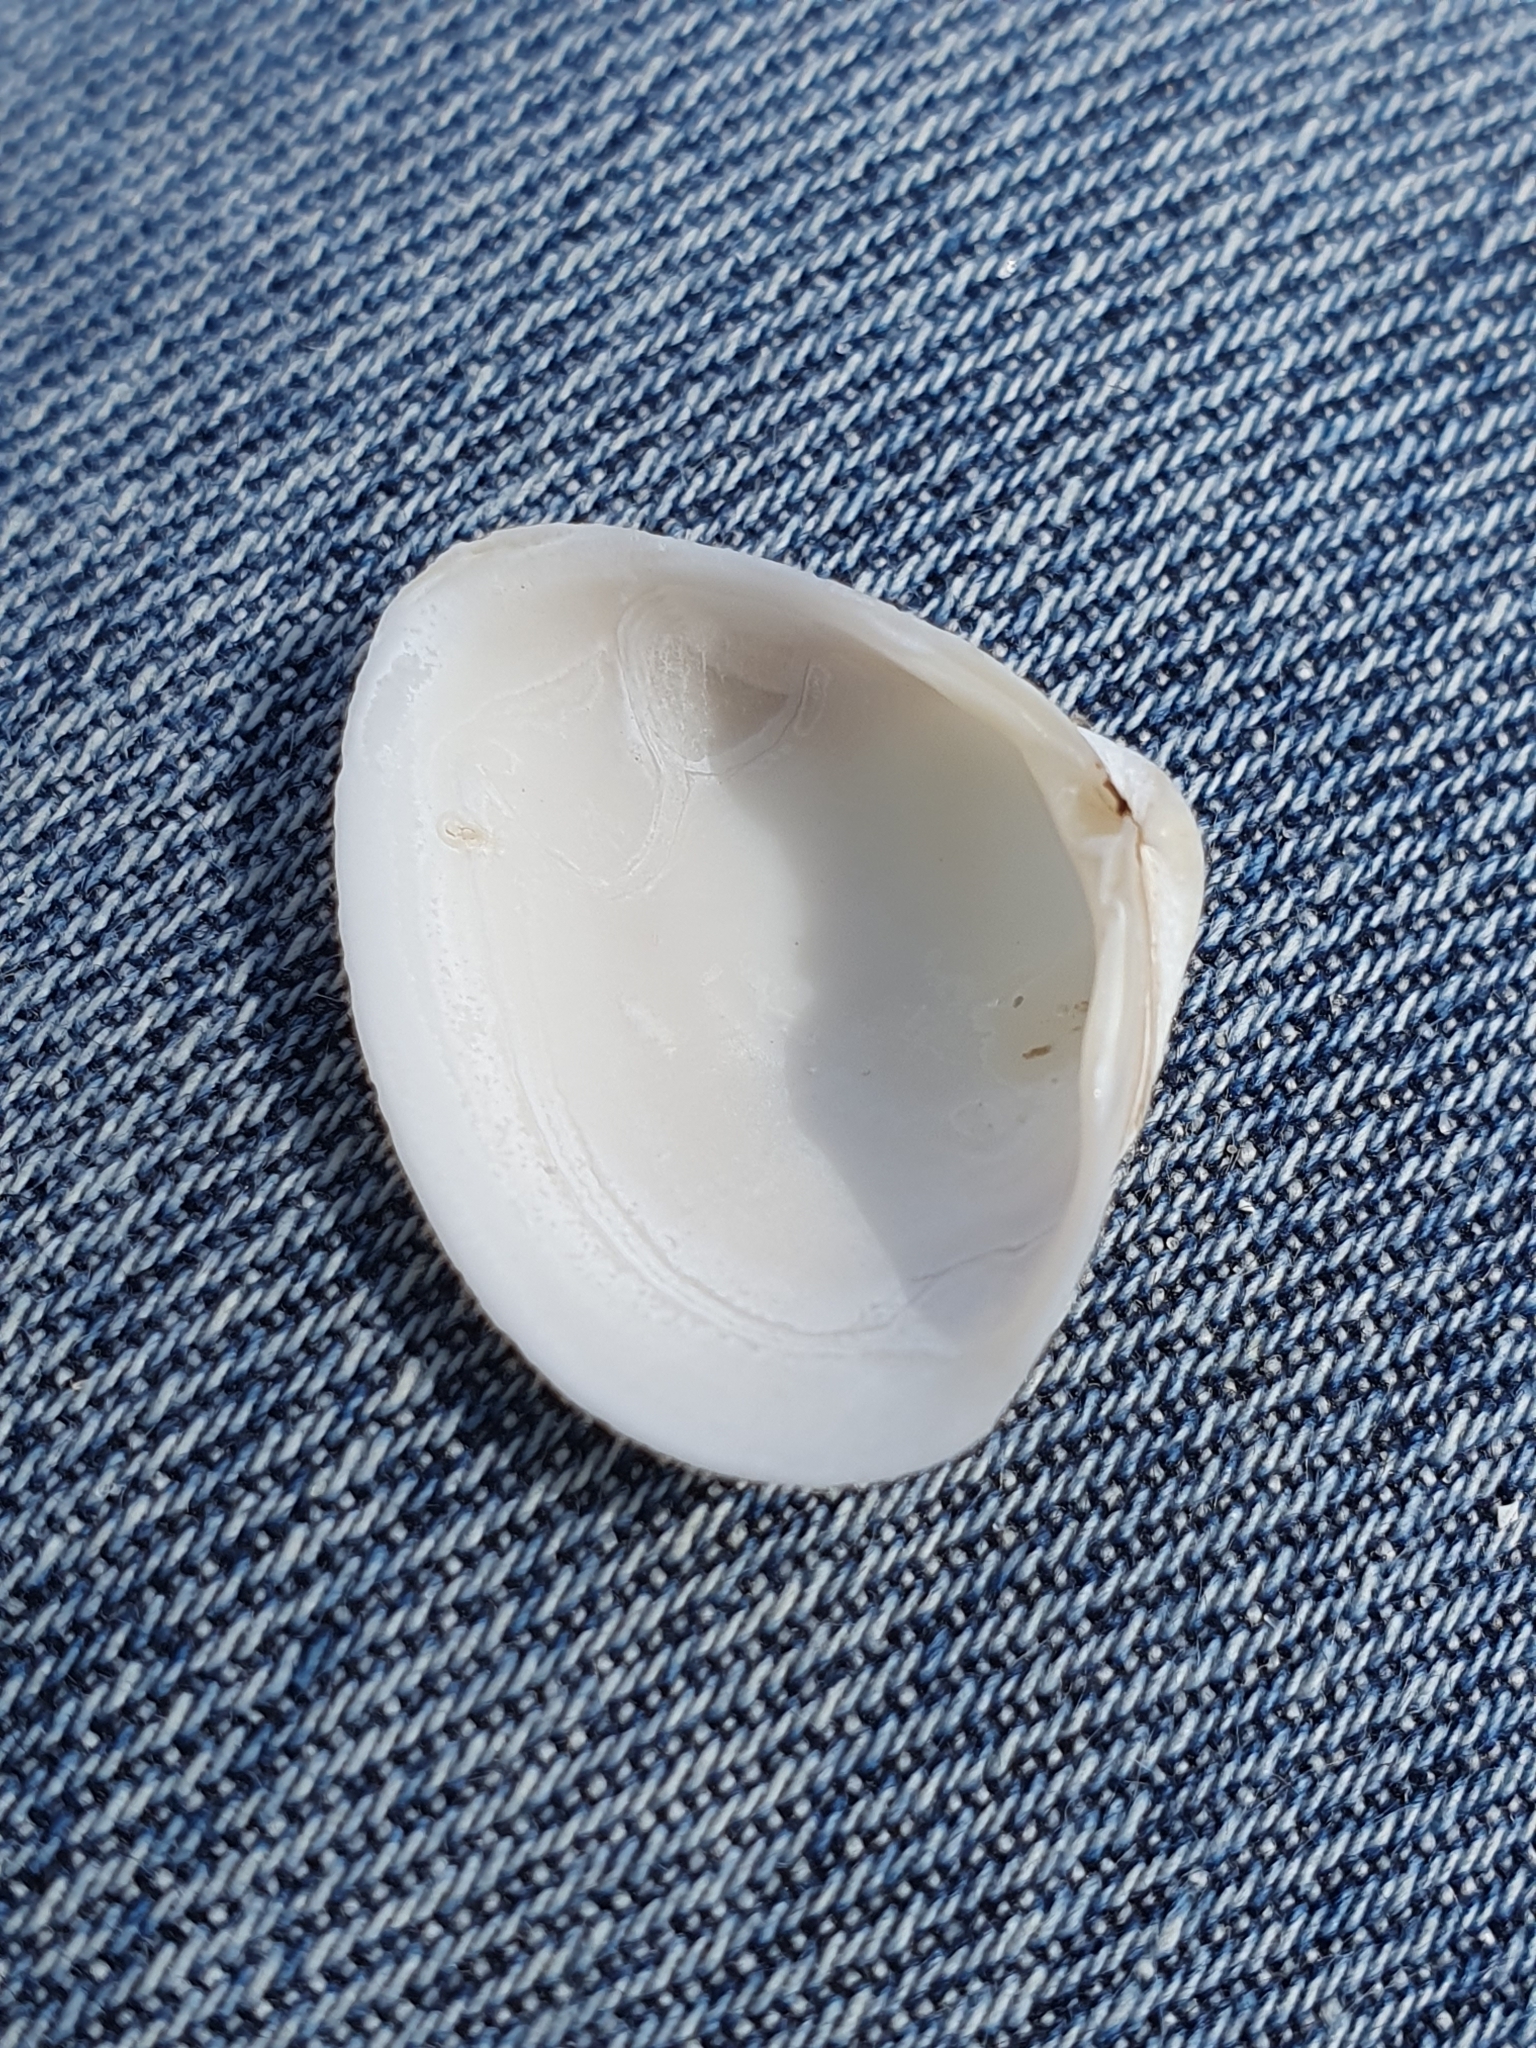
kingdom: Animalia
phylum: Mollusca
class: Bivalvia
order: Venerida
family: Mactridae
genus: Spisula
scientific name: Spisula subtruncata
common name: Cut trough shell
